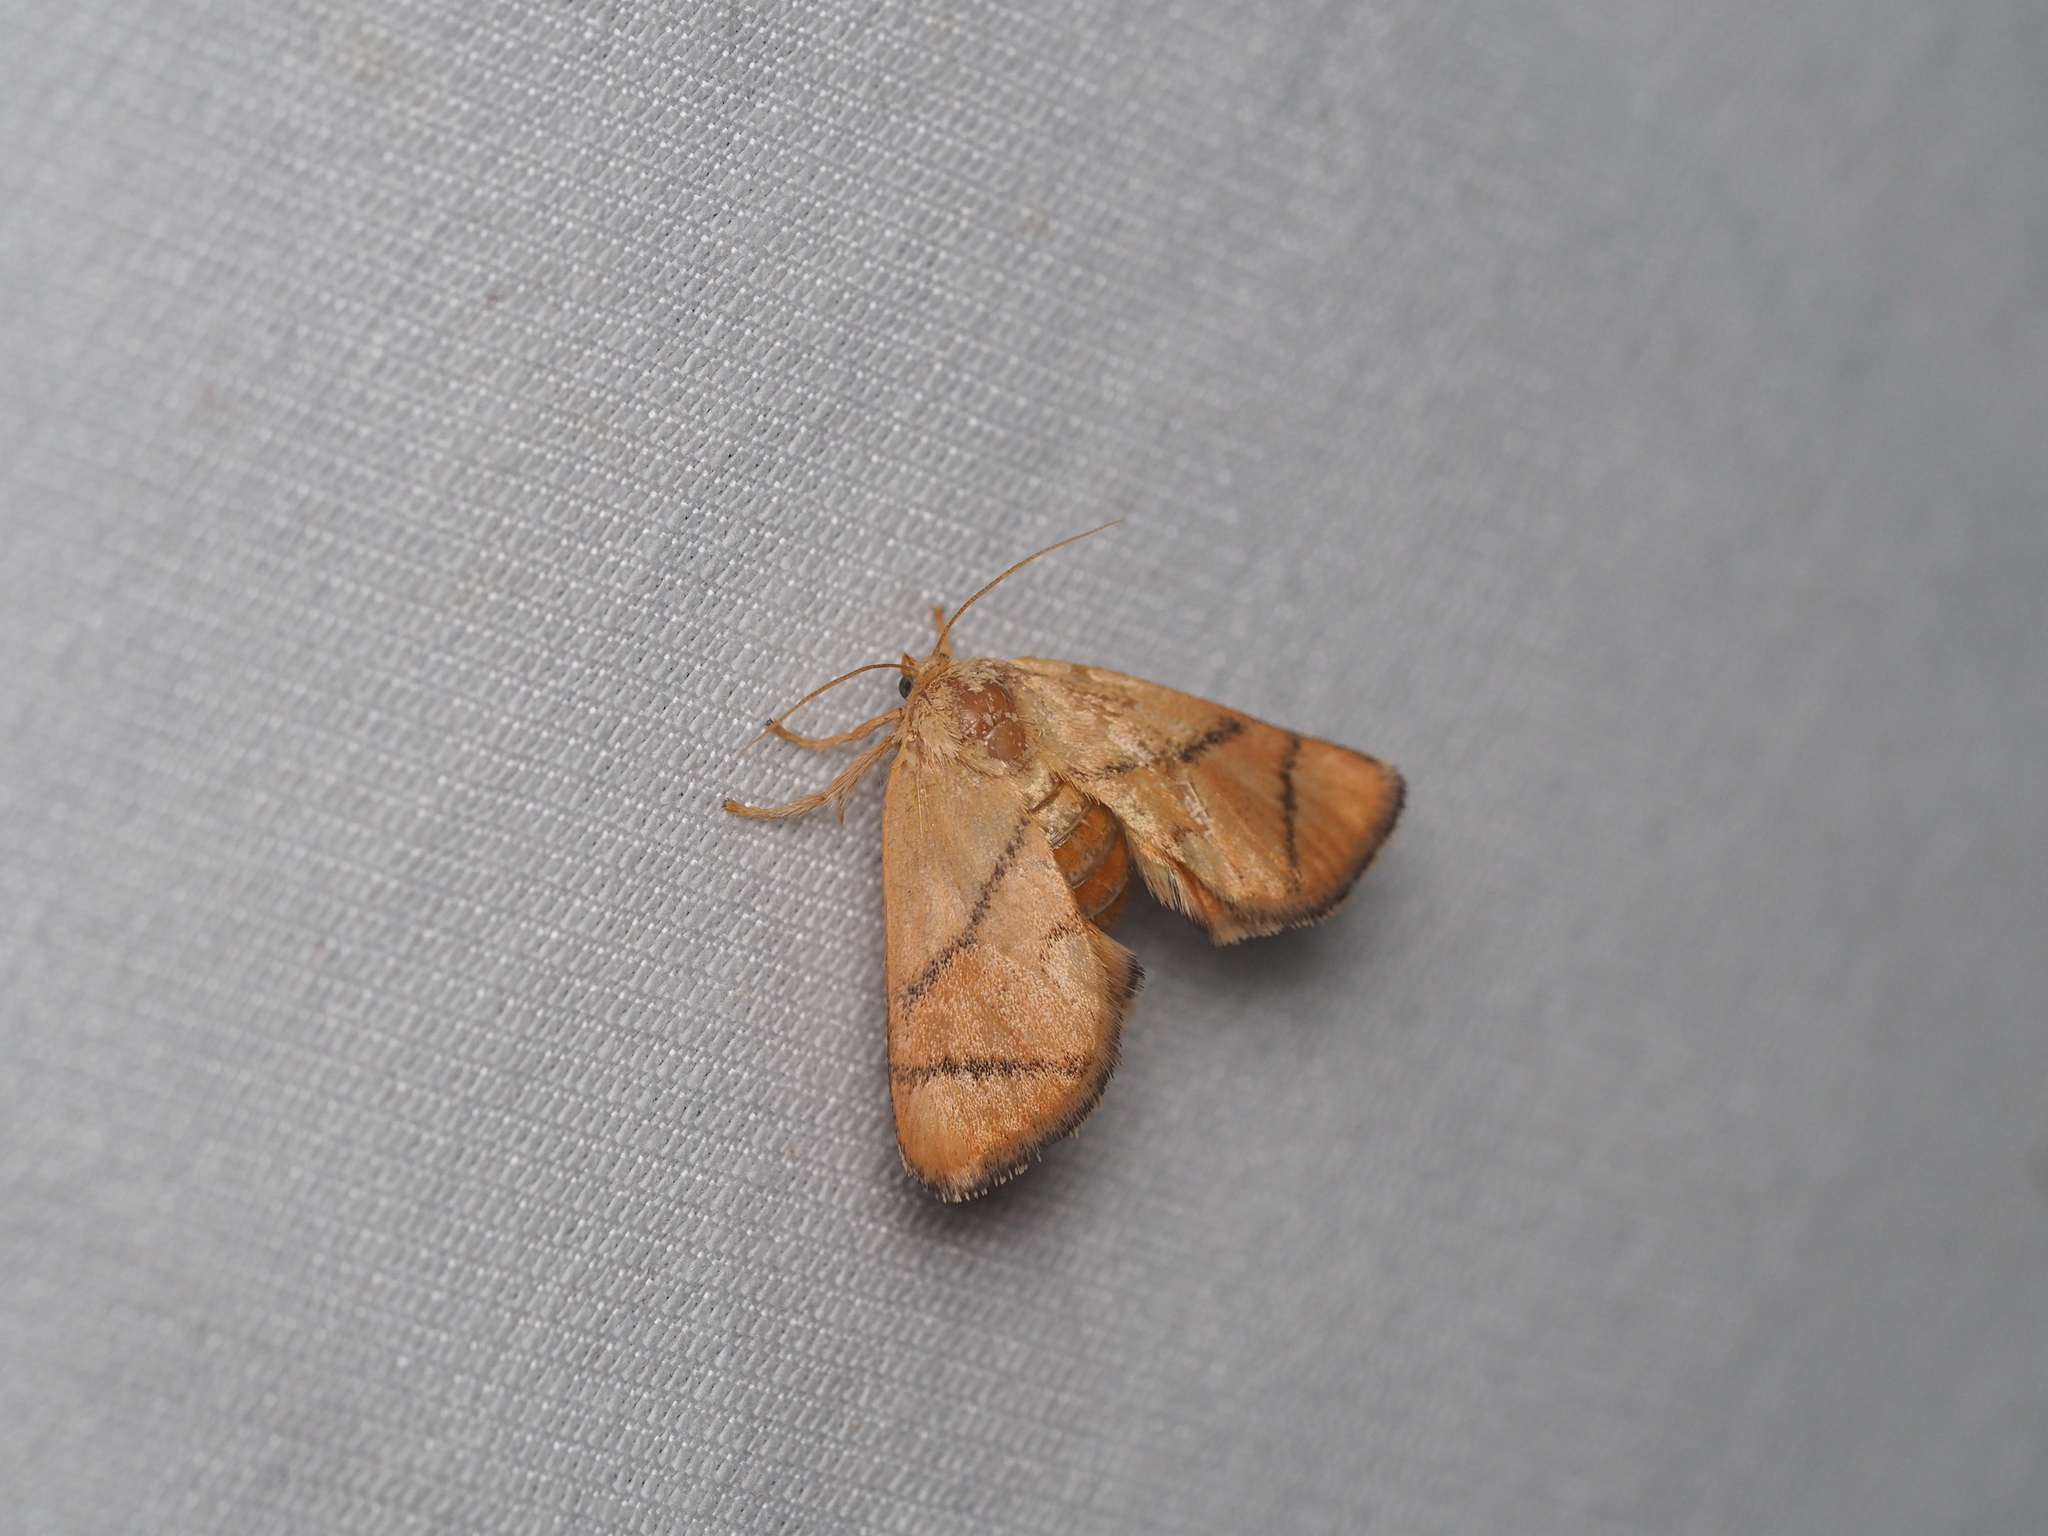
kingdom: Animalia
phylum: Arthropoda
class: Insecta
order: Lepidoptera
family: Limacodidae
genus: Apoda
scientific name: Apoda limacodes
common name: Festoon
